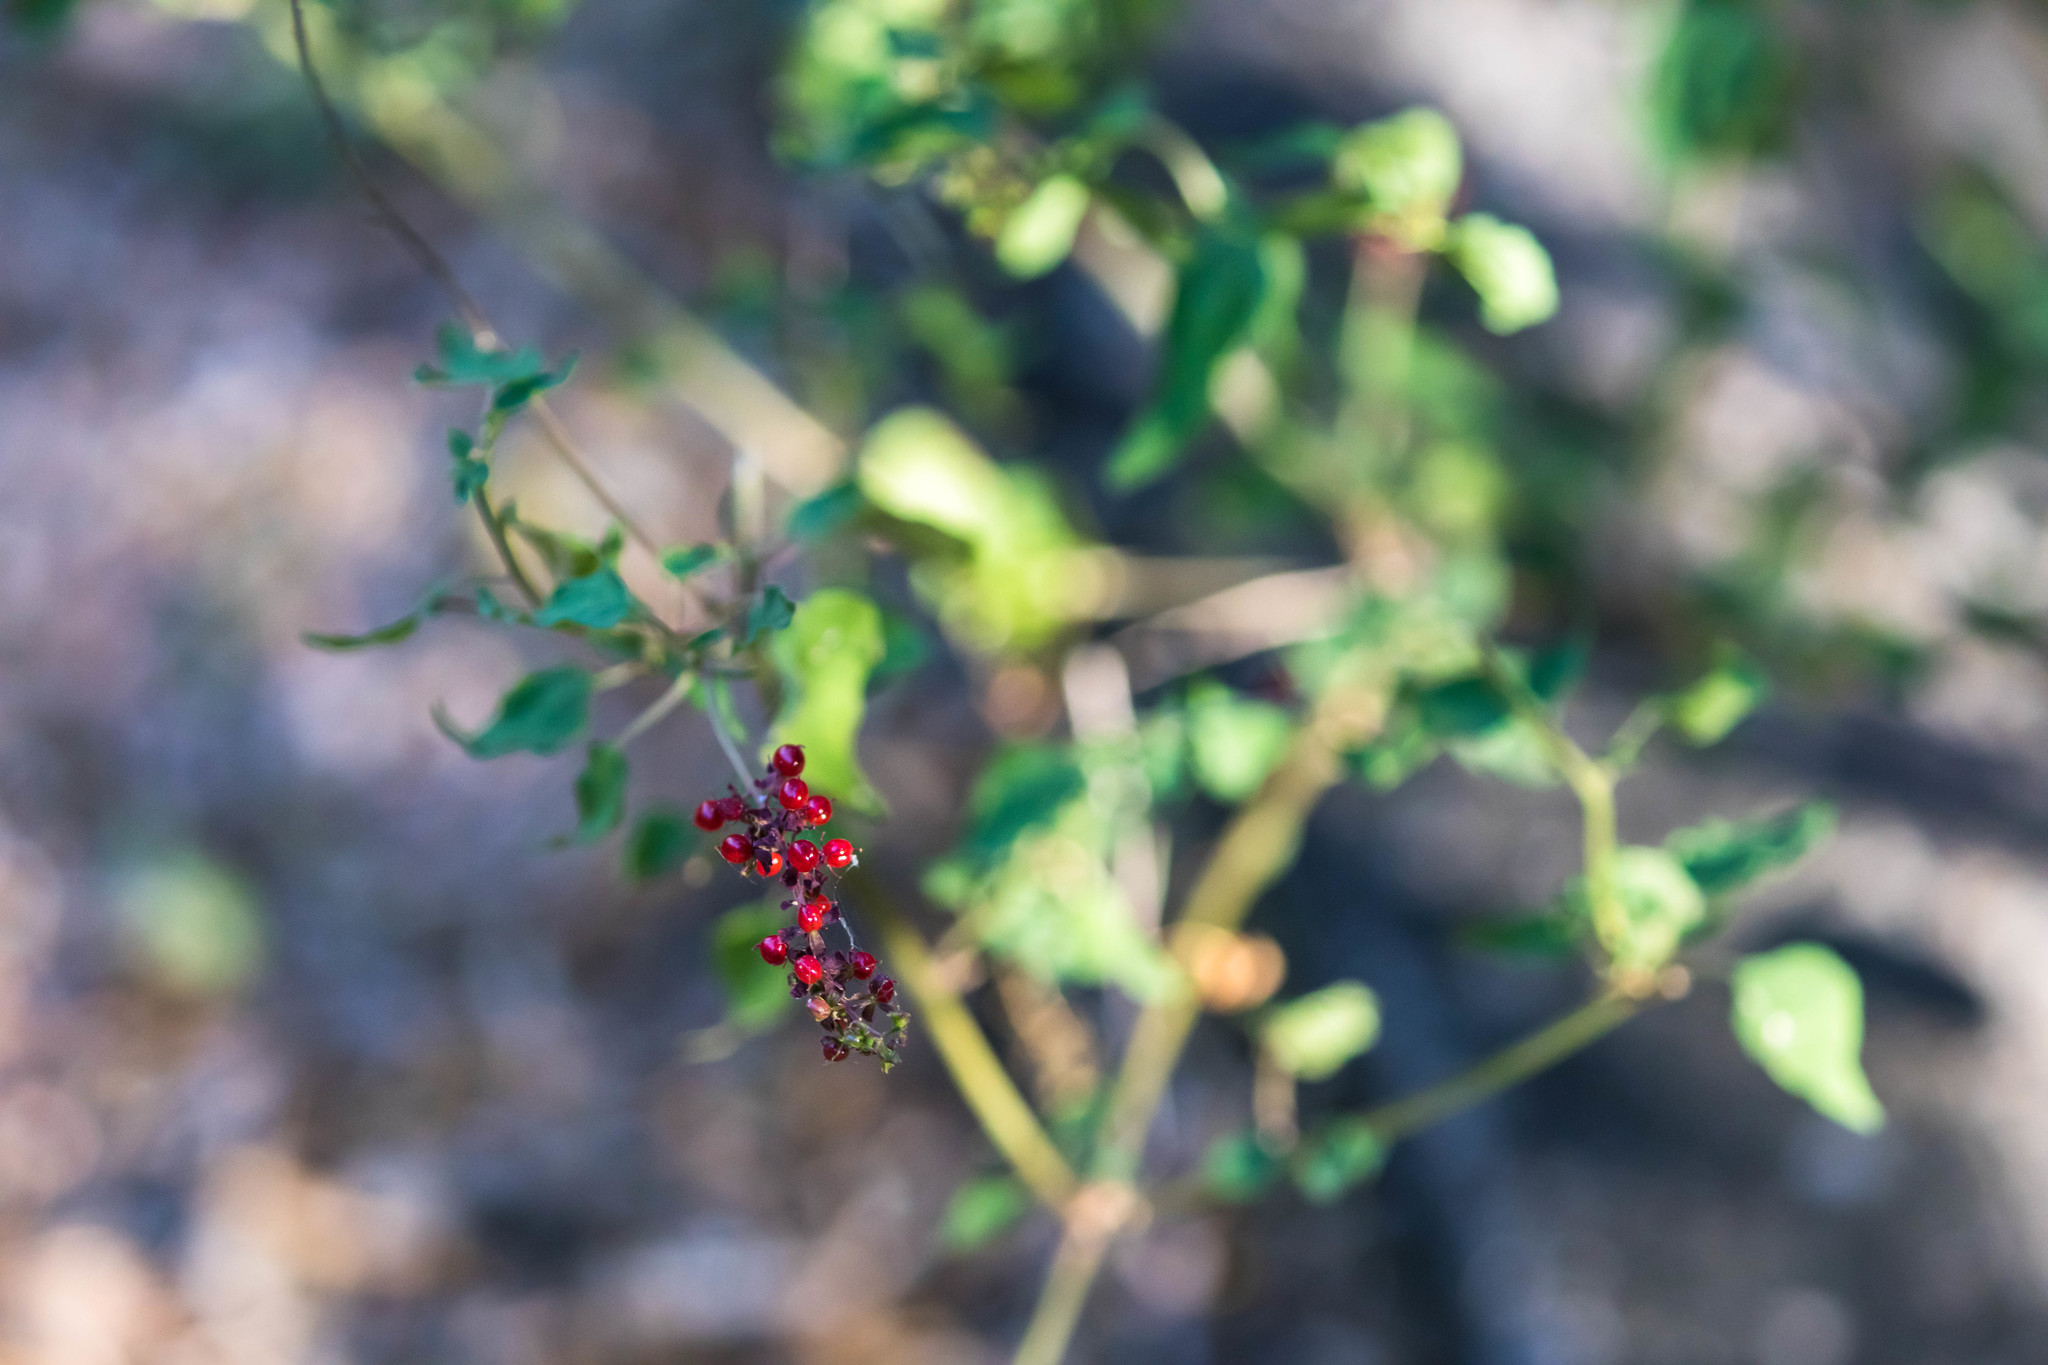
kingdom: Plantae
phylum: Tracheophyta
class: Magnoliopsida
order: Caryophyllales
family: Phytolaccaceae
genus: Rivina
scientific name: Rivina humilis
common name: Rougeplant
